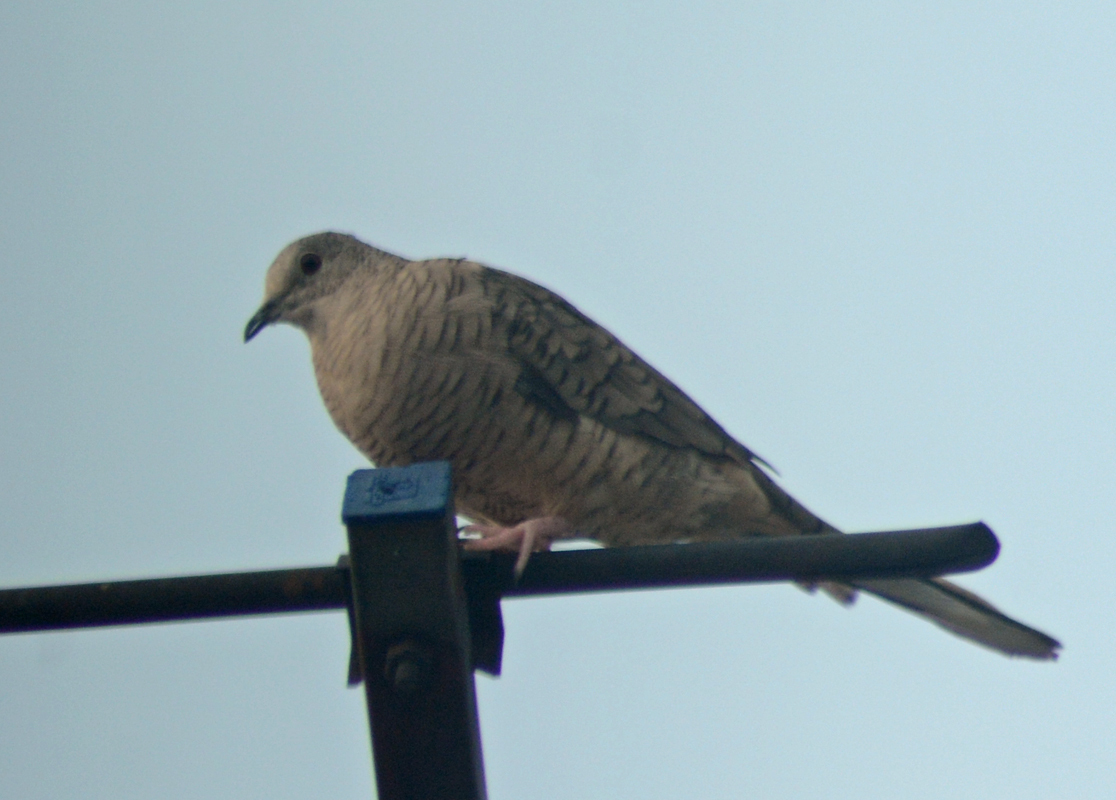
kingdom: Animalia
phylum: Chordata
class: Aves
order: Columbiformes
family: Columbidae
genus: Columbina
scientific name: Columbina inca
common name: Inca dove
